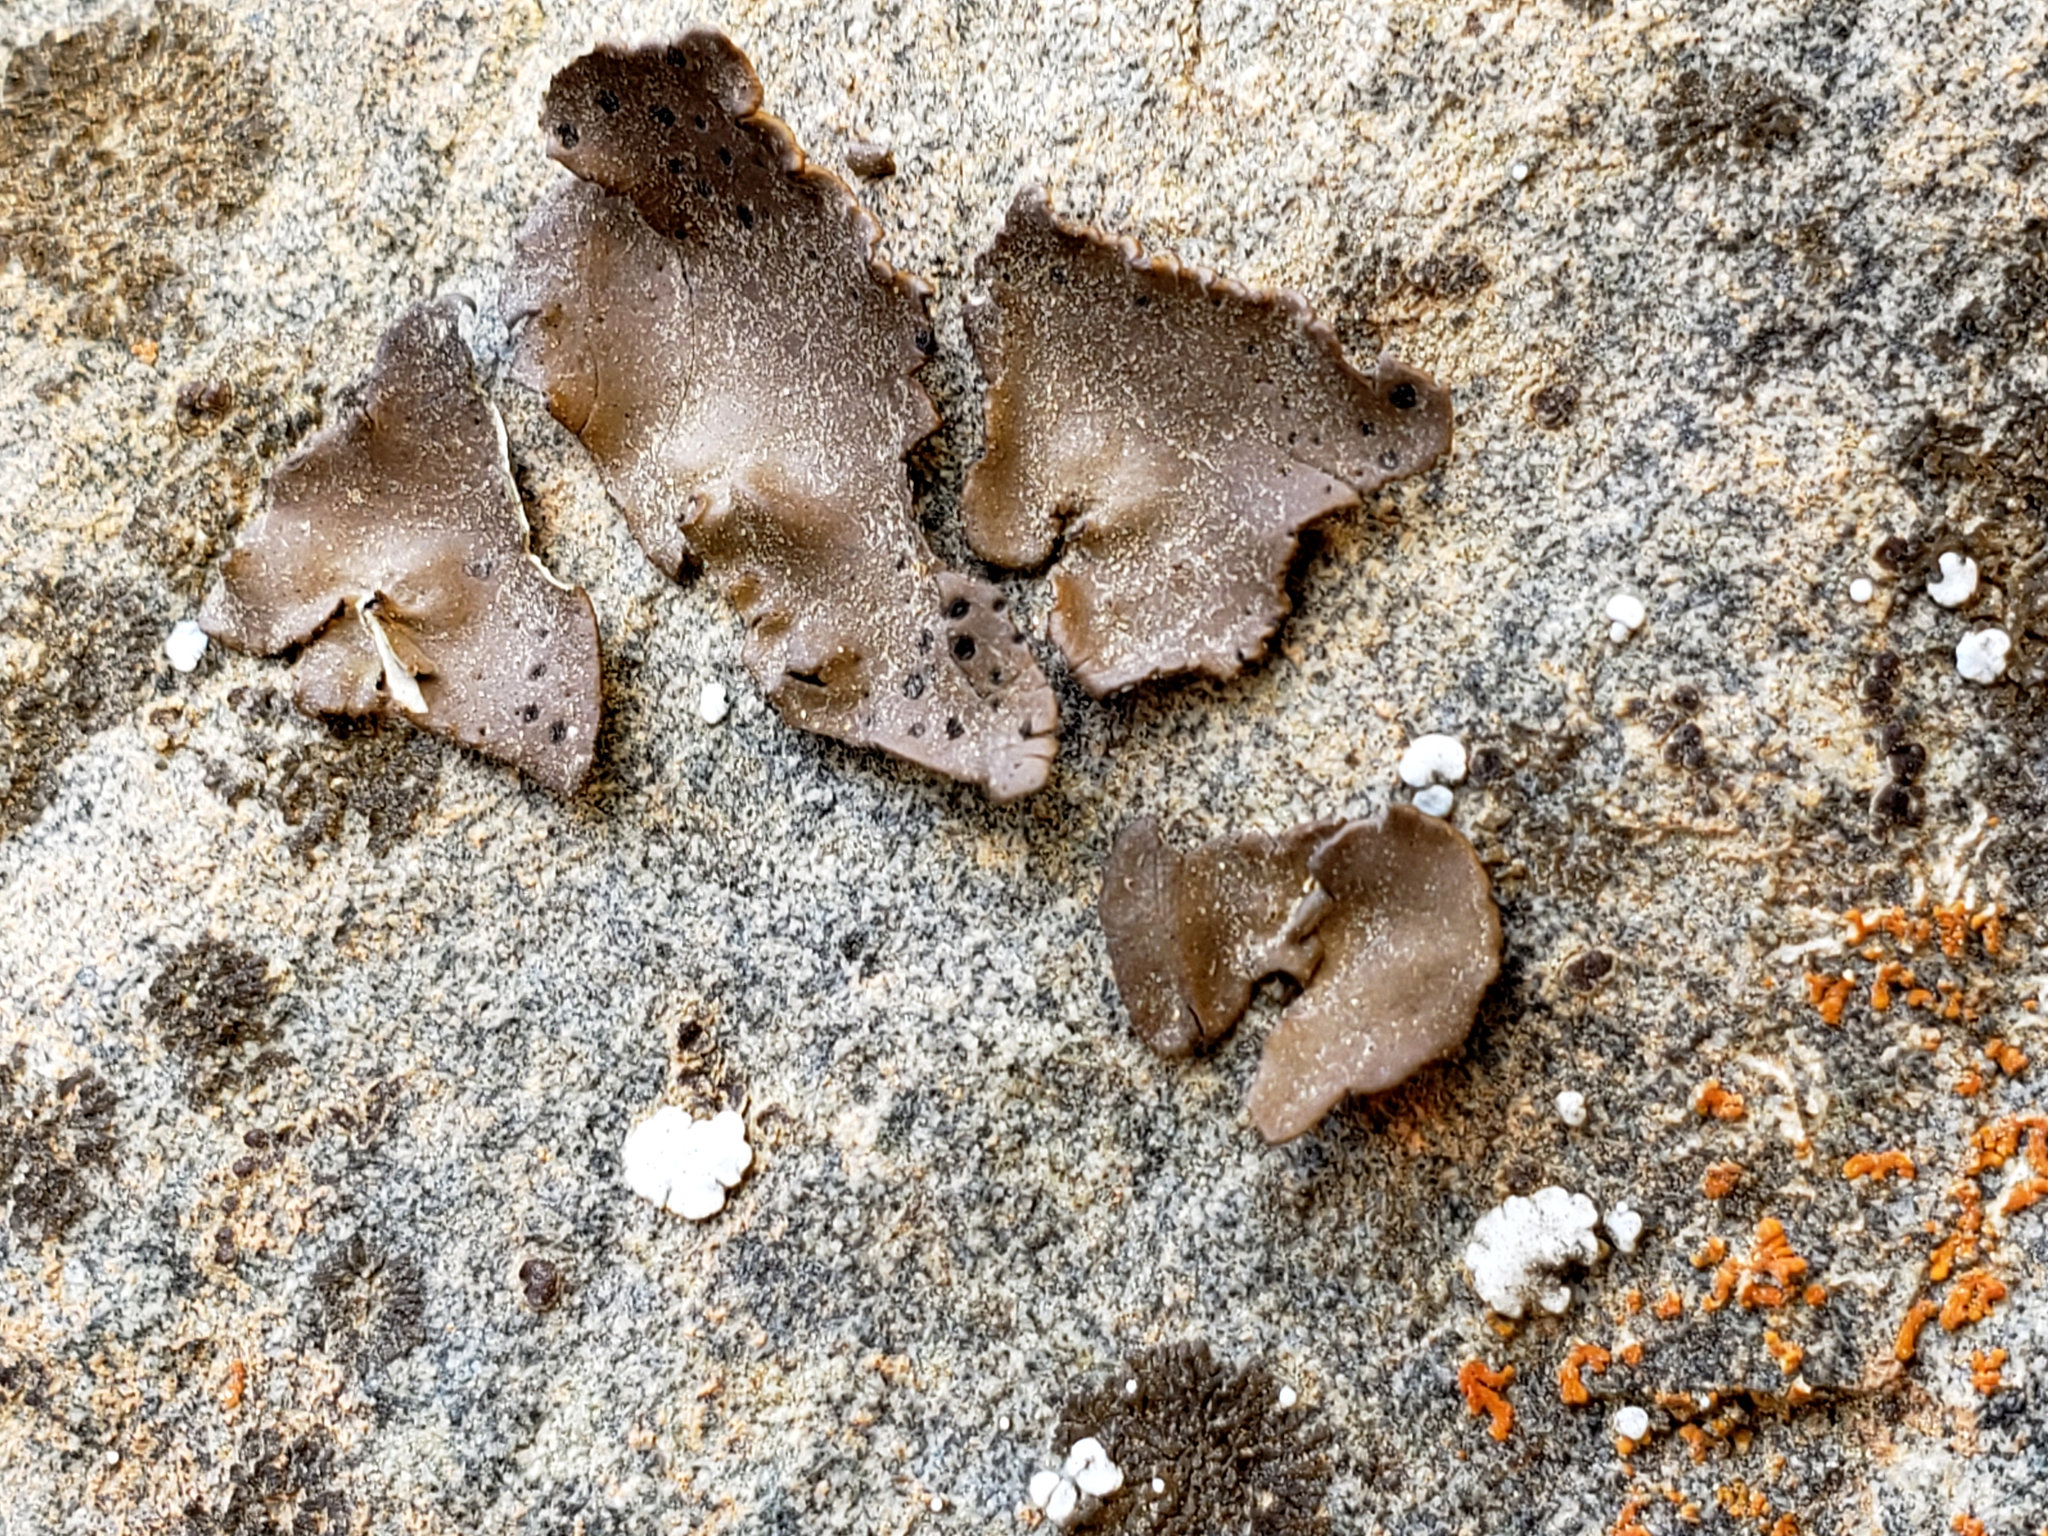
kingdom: Fungi
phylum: Ascomycota
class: Lecanoromycetes
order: Umbilicariales
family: Umbilicariaceae
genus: Umbilicaria
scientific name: Umbilicaria phaea
